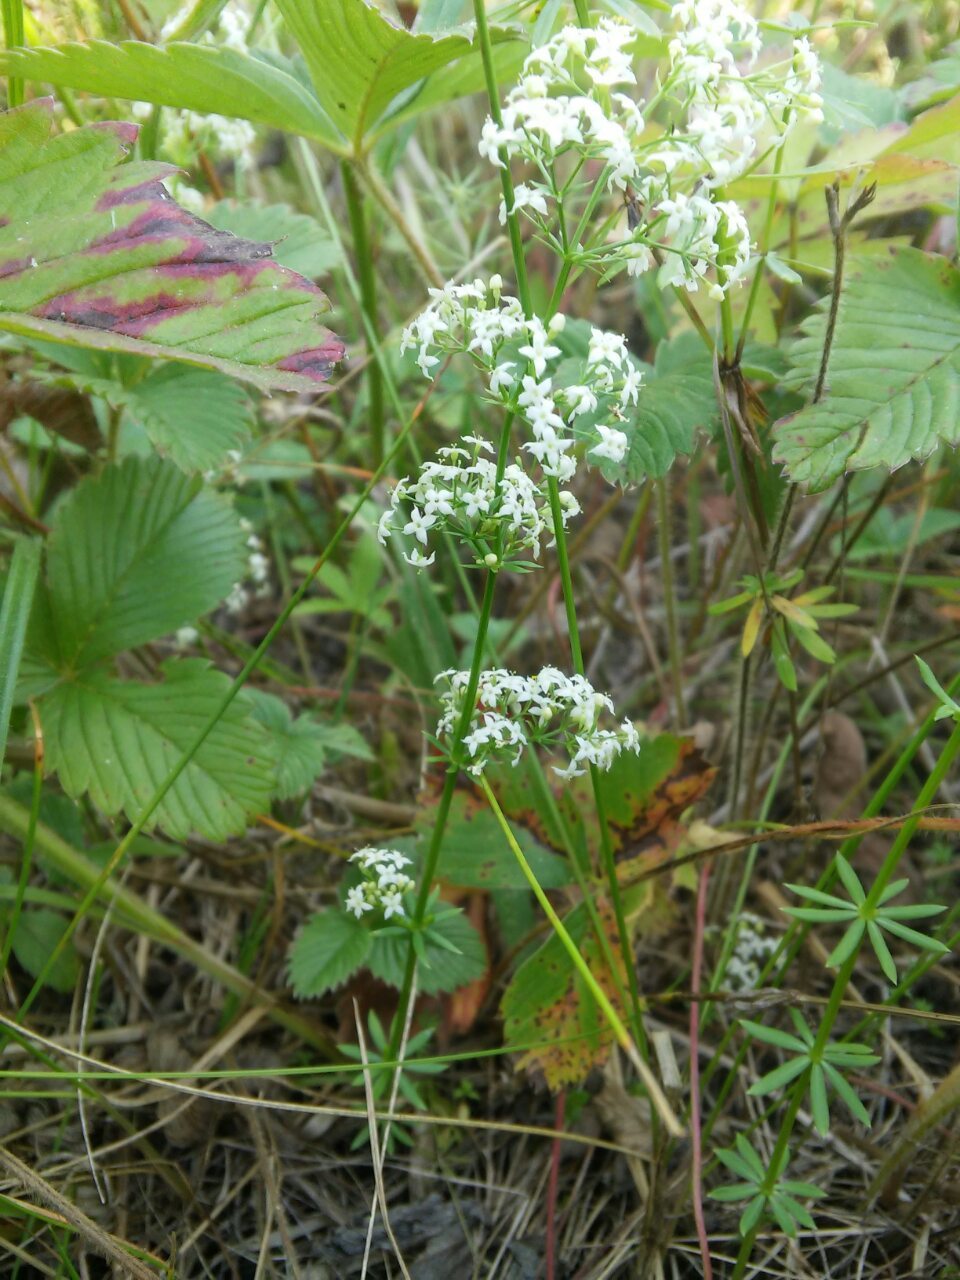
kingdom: Plantae
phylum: Tracheophyta
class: Magnoliopsida
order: Gentianales
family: Rubiaceae
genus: Galium
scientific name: Galium mollugo
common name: Hedge bedstraw
